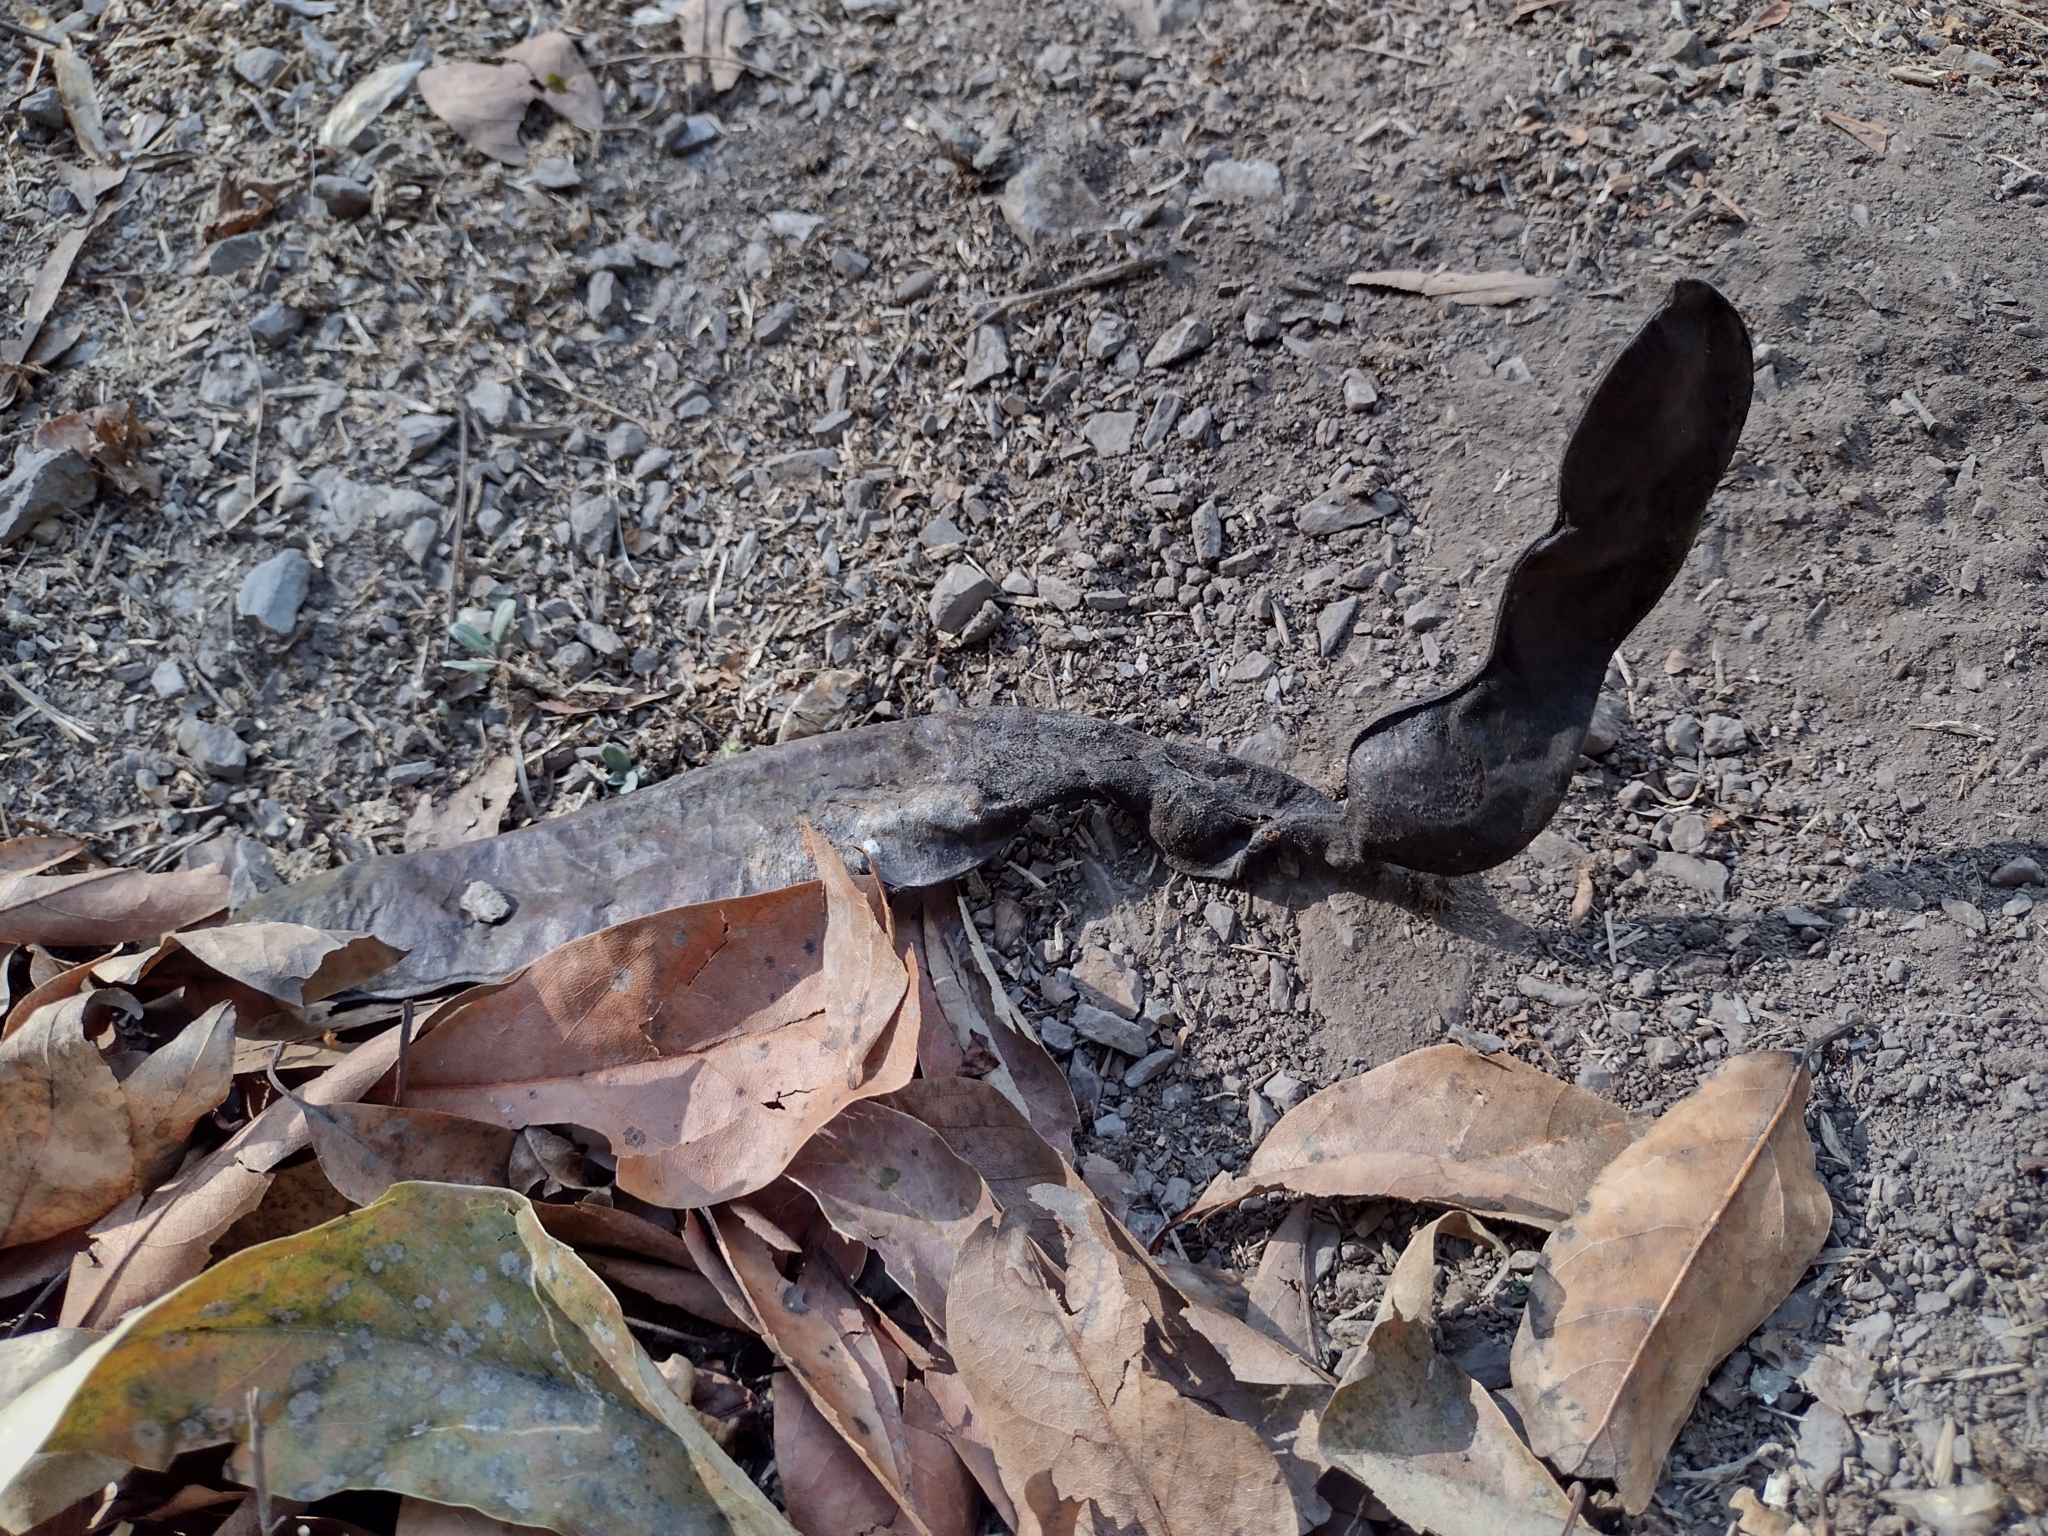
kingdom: Plantae
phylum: Tracheophyta
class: Magnoliopsida
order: Fabales
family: Fabaceae
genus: Gleditsia
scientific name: Gleditsia triacanthos
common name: Common honeylocust
